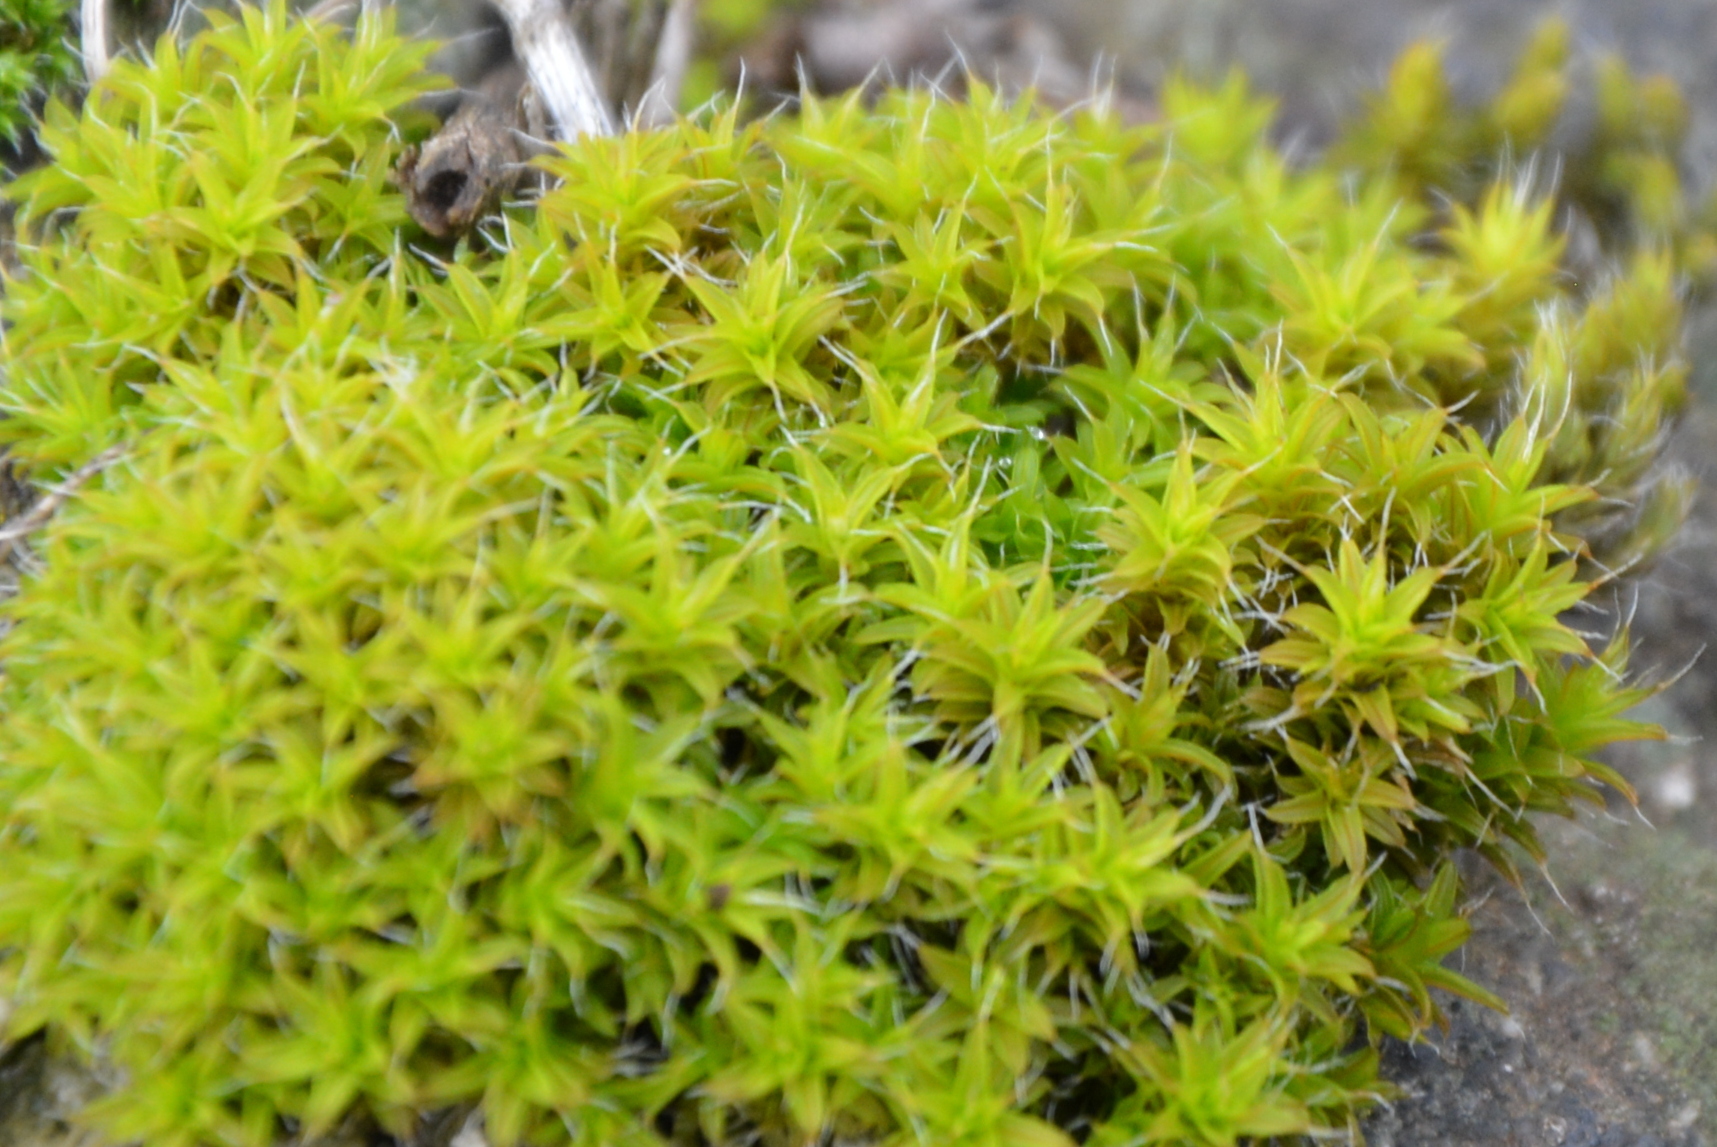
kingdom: Plantae
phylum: Bryophyta
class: Bryopsida
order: Pottiales
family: Pottiaceae
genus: Syntrichia
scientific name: Syntrichia ruralis
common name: Sidewalk screw moss
